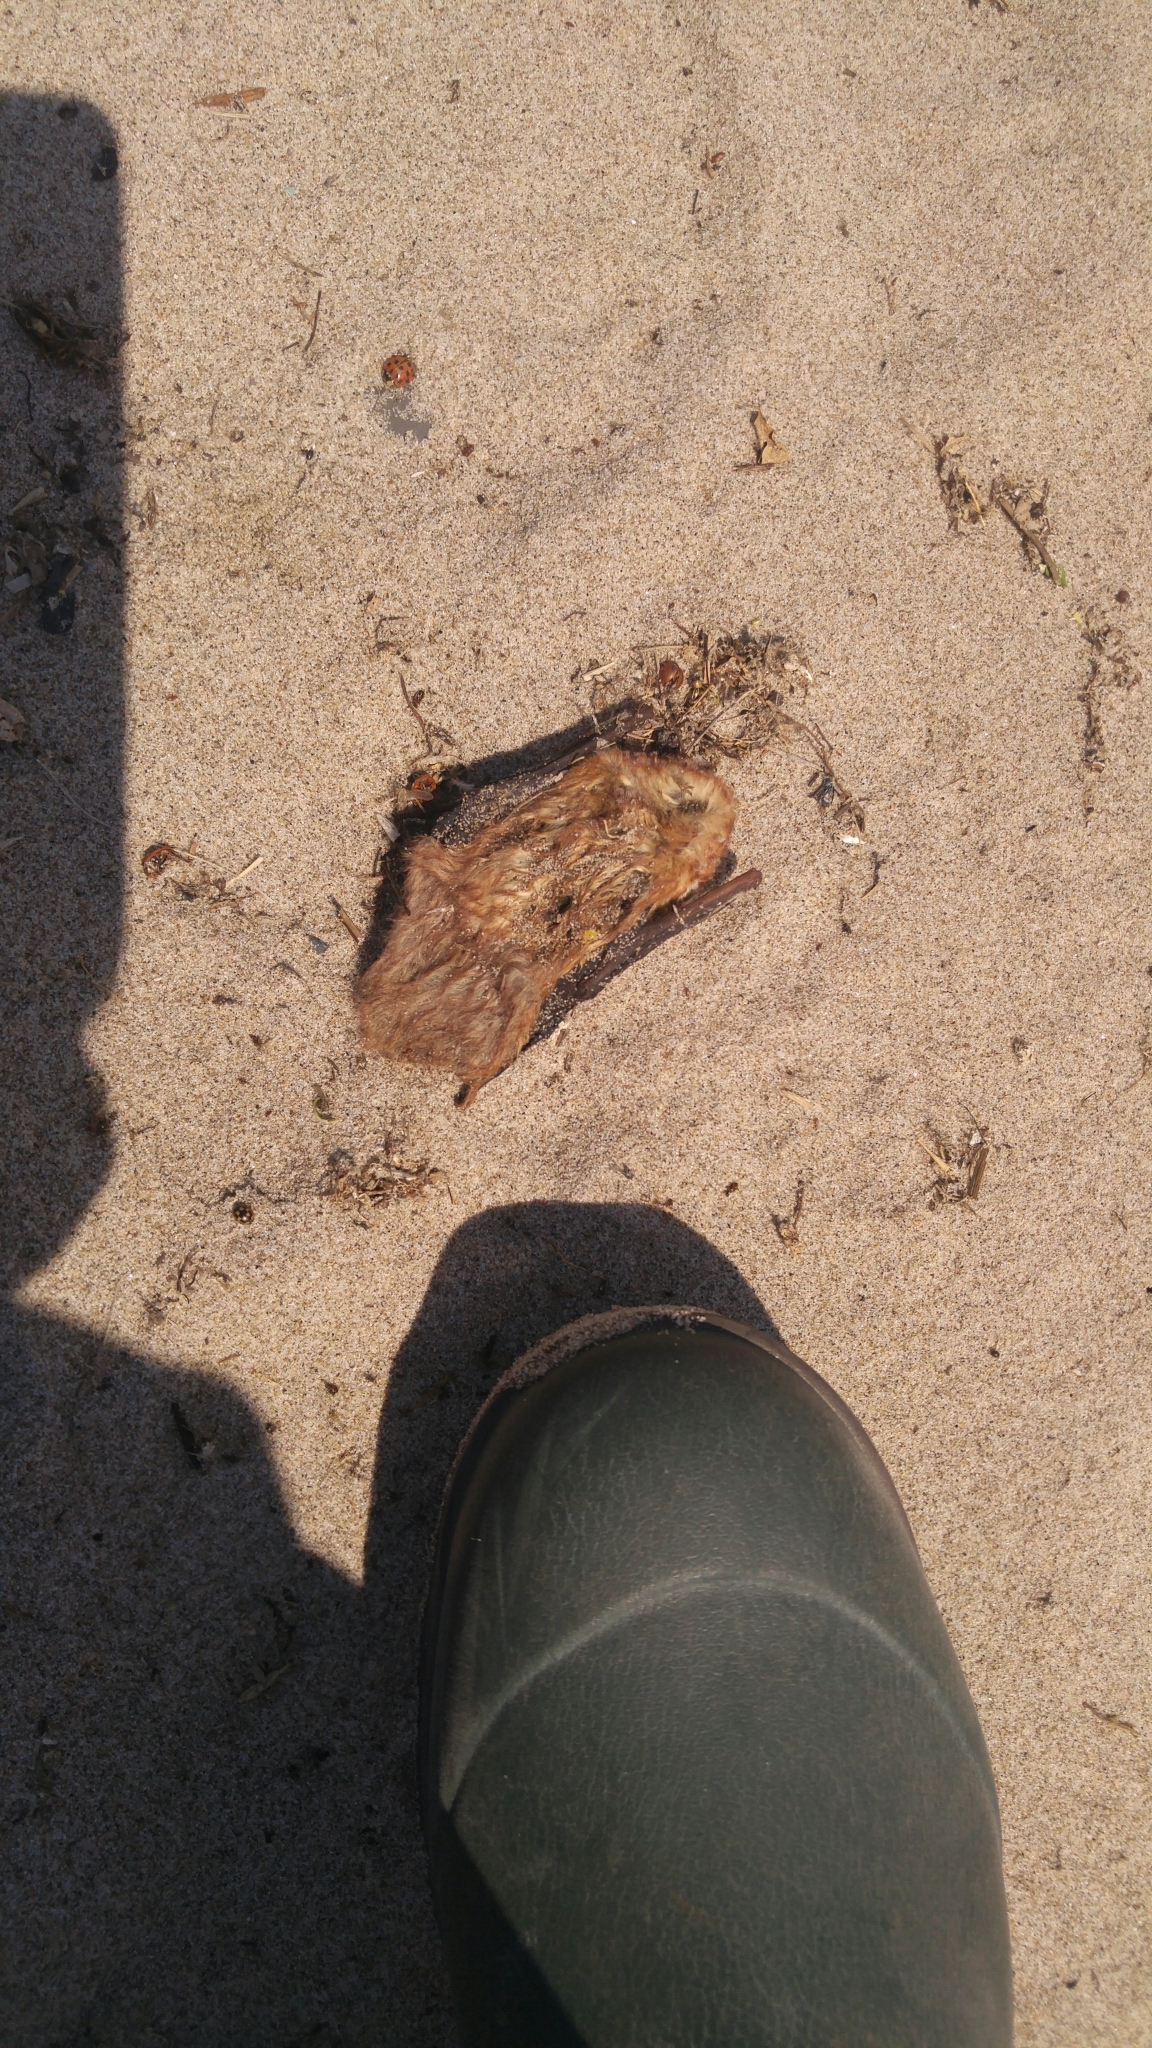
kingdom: Animalia
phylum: Chordata
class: Mammalia
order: Chiroptera
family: Vespertilionidae
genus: Lasiurus
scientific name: Lasiurus borealis
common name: Eastern red bat
